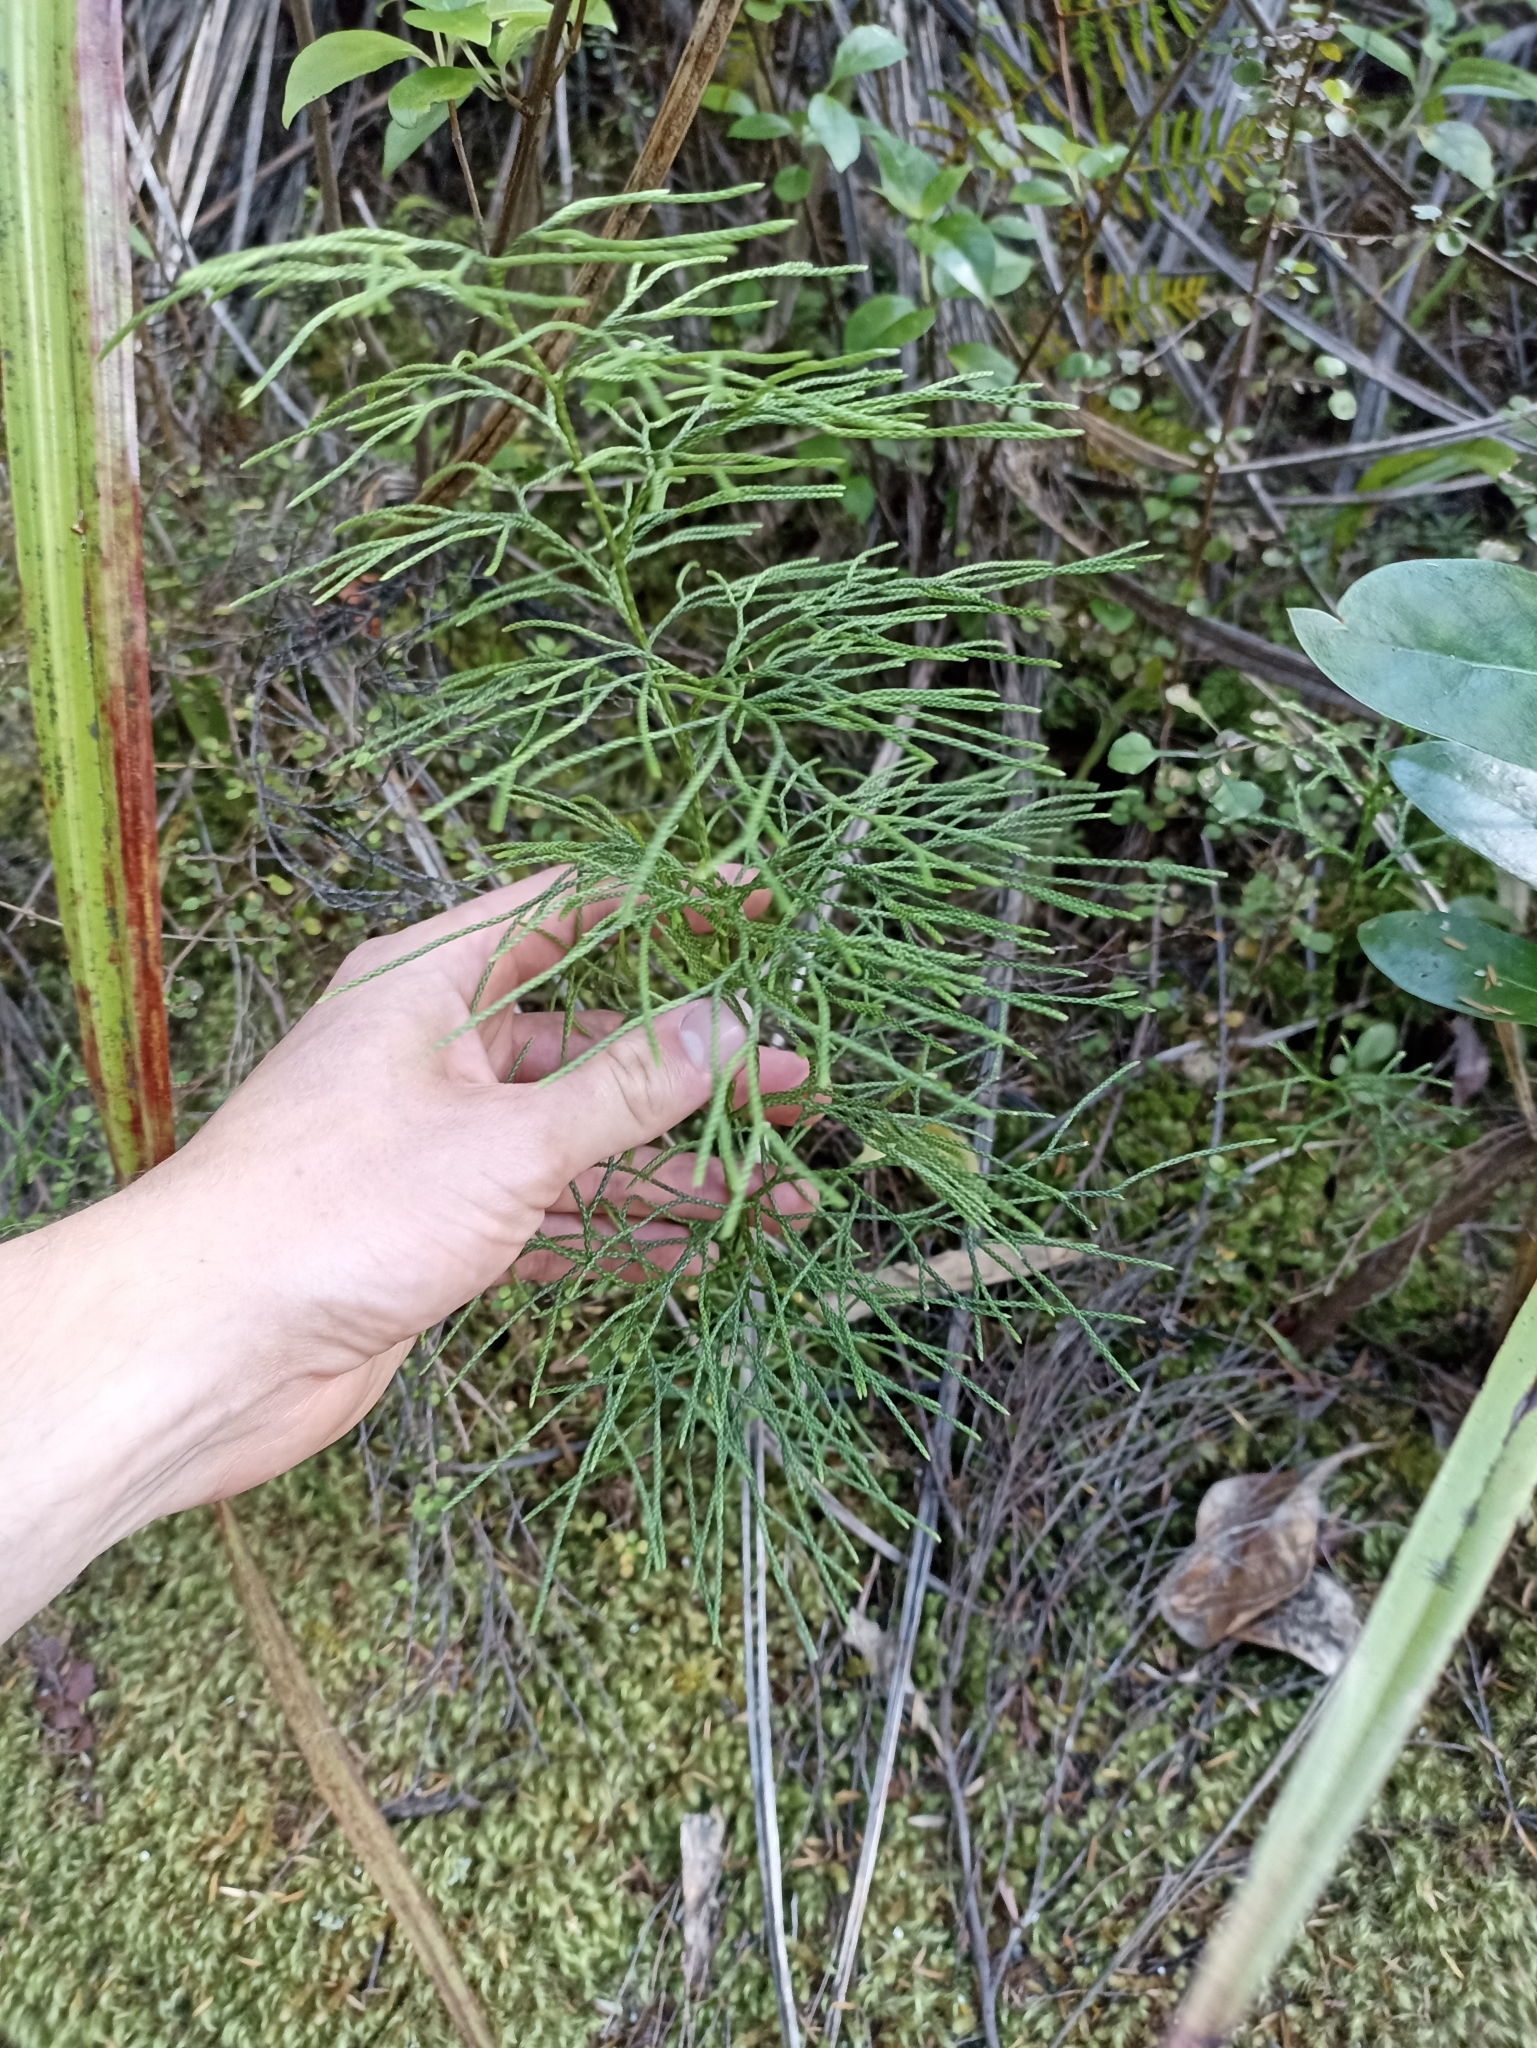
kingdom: Plantae
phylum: Tracheophyta
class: Lycopodiopsida
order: Lycopodiales
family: Lycopodiaceae
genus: Pseudolycopodium
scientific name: Pseudolycopodium densum
